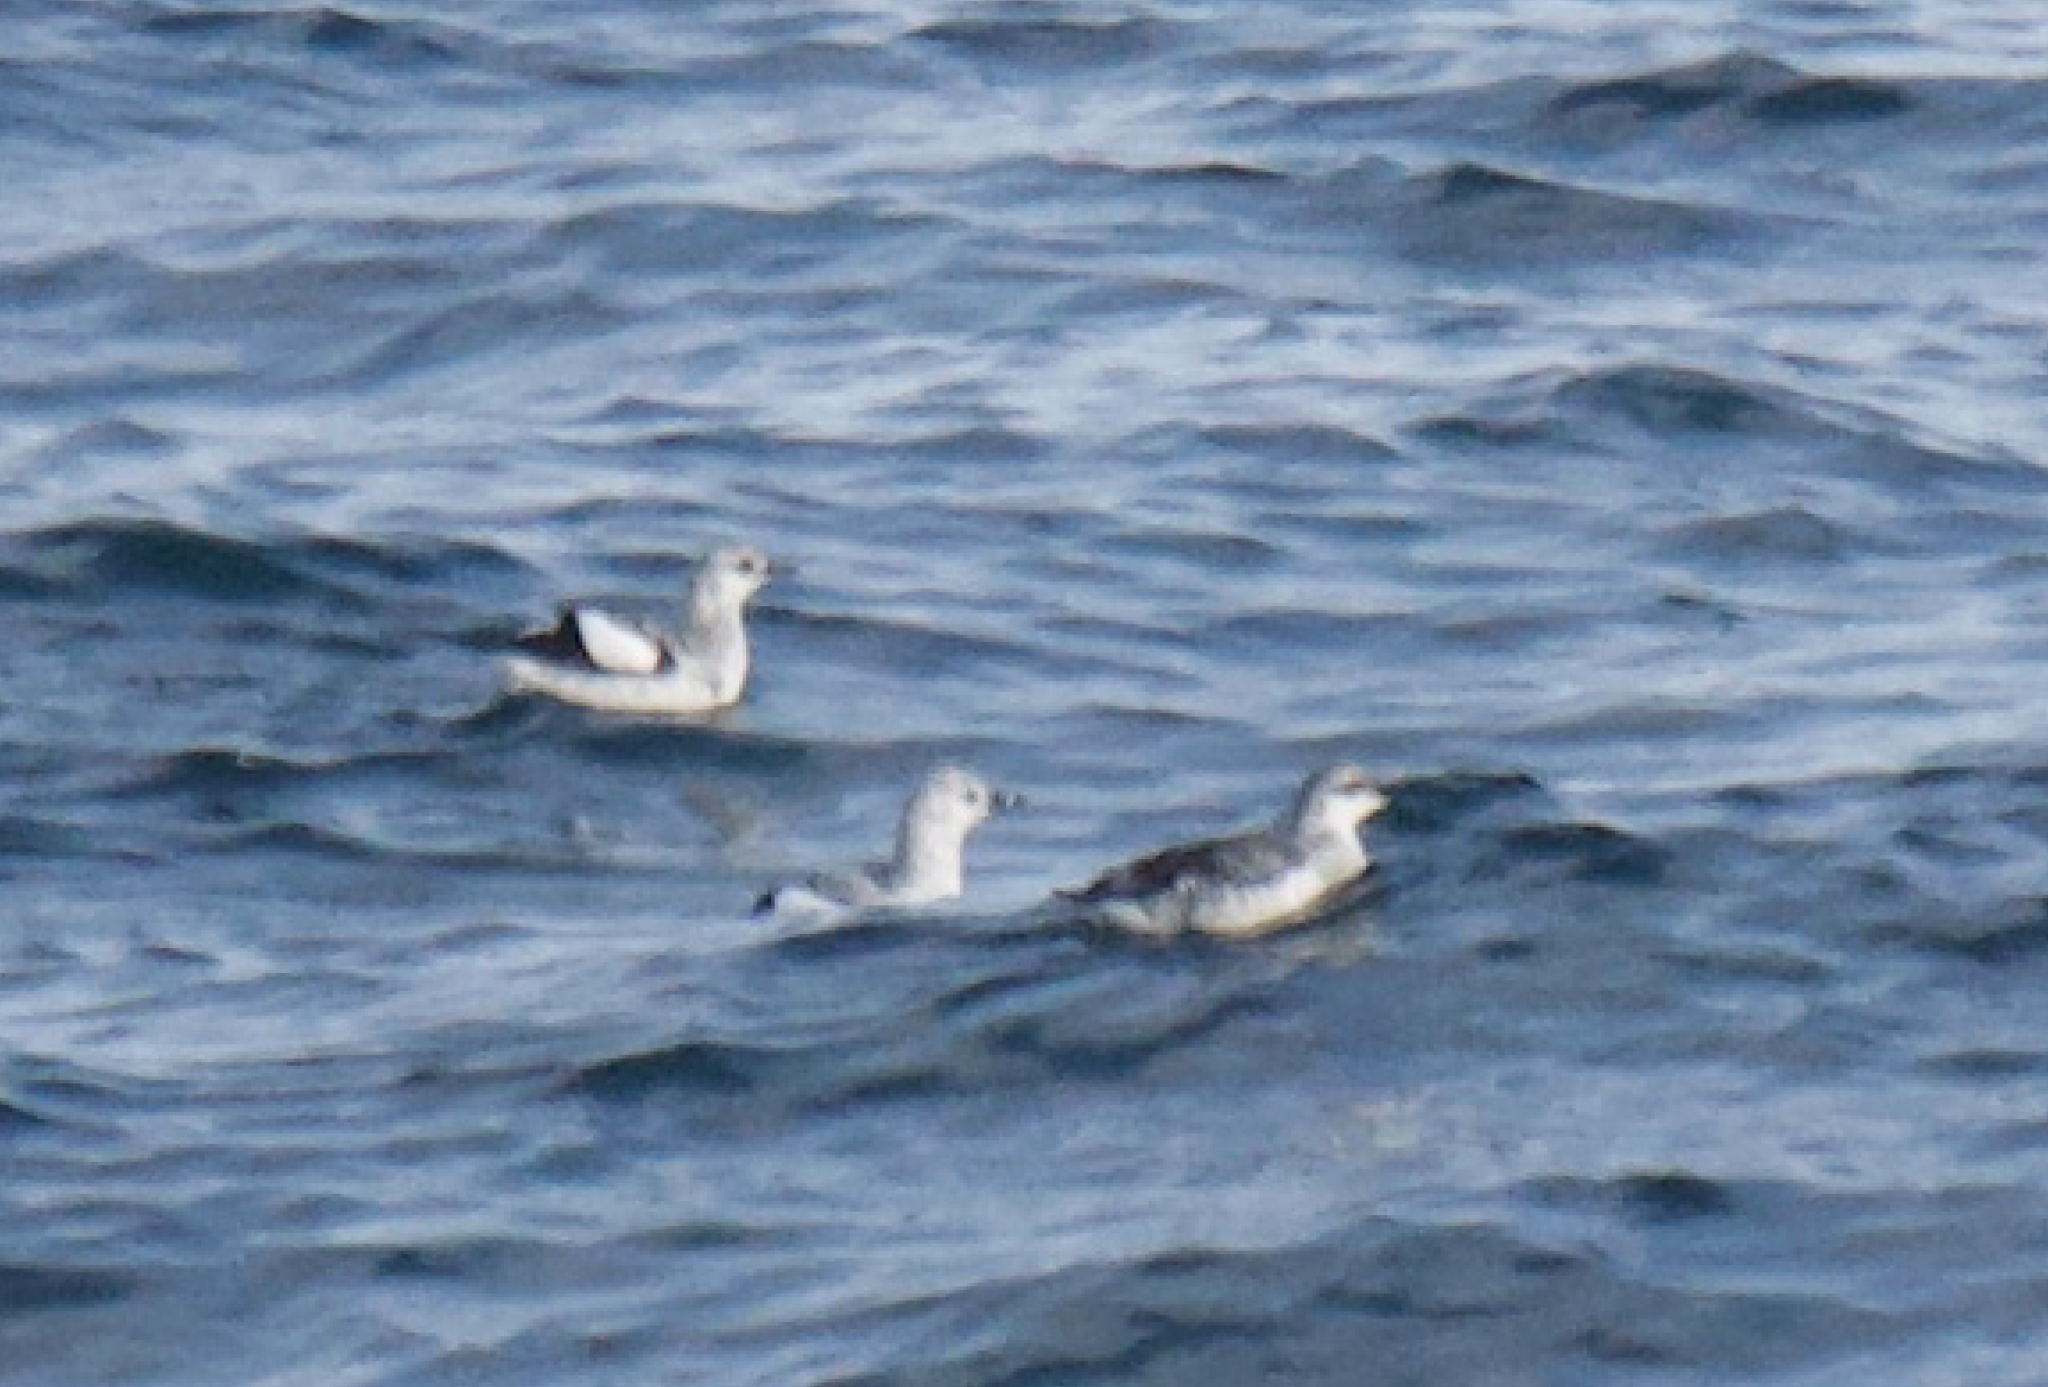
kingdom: Animalia
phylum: Chordata
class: Aves
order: Charadriiformes
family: Alcidae
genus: Cepphus
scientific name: Cepphus grylle
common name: Black guillemot
